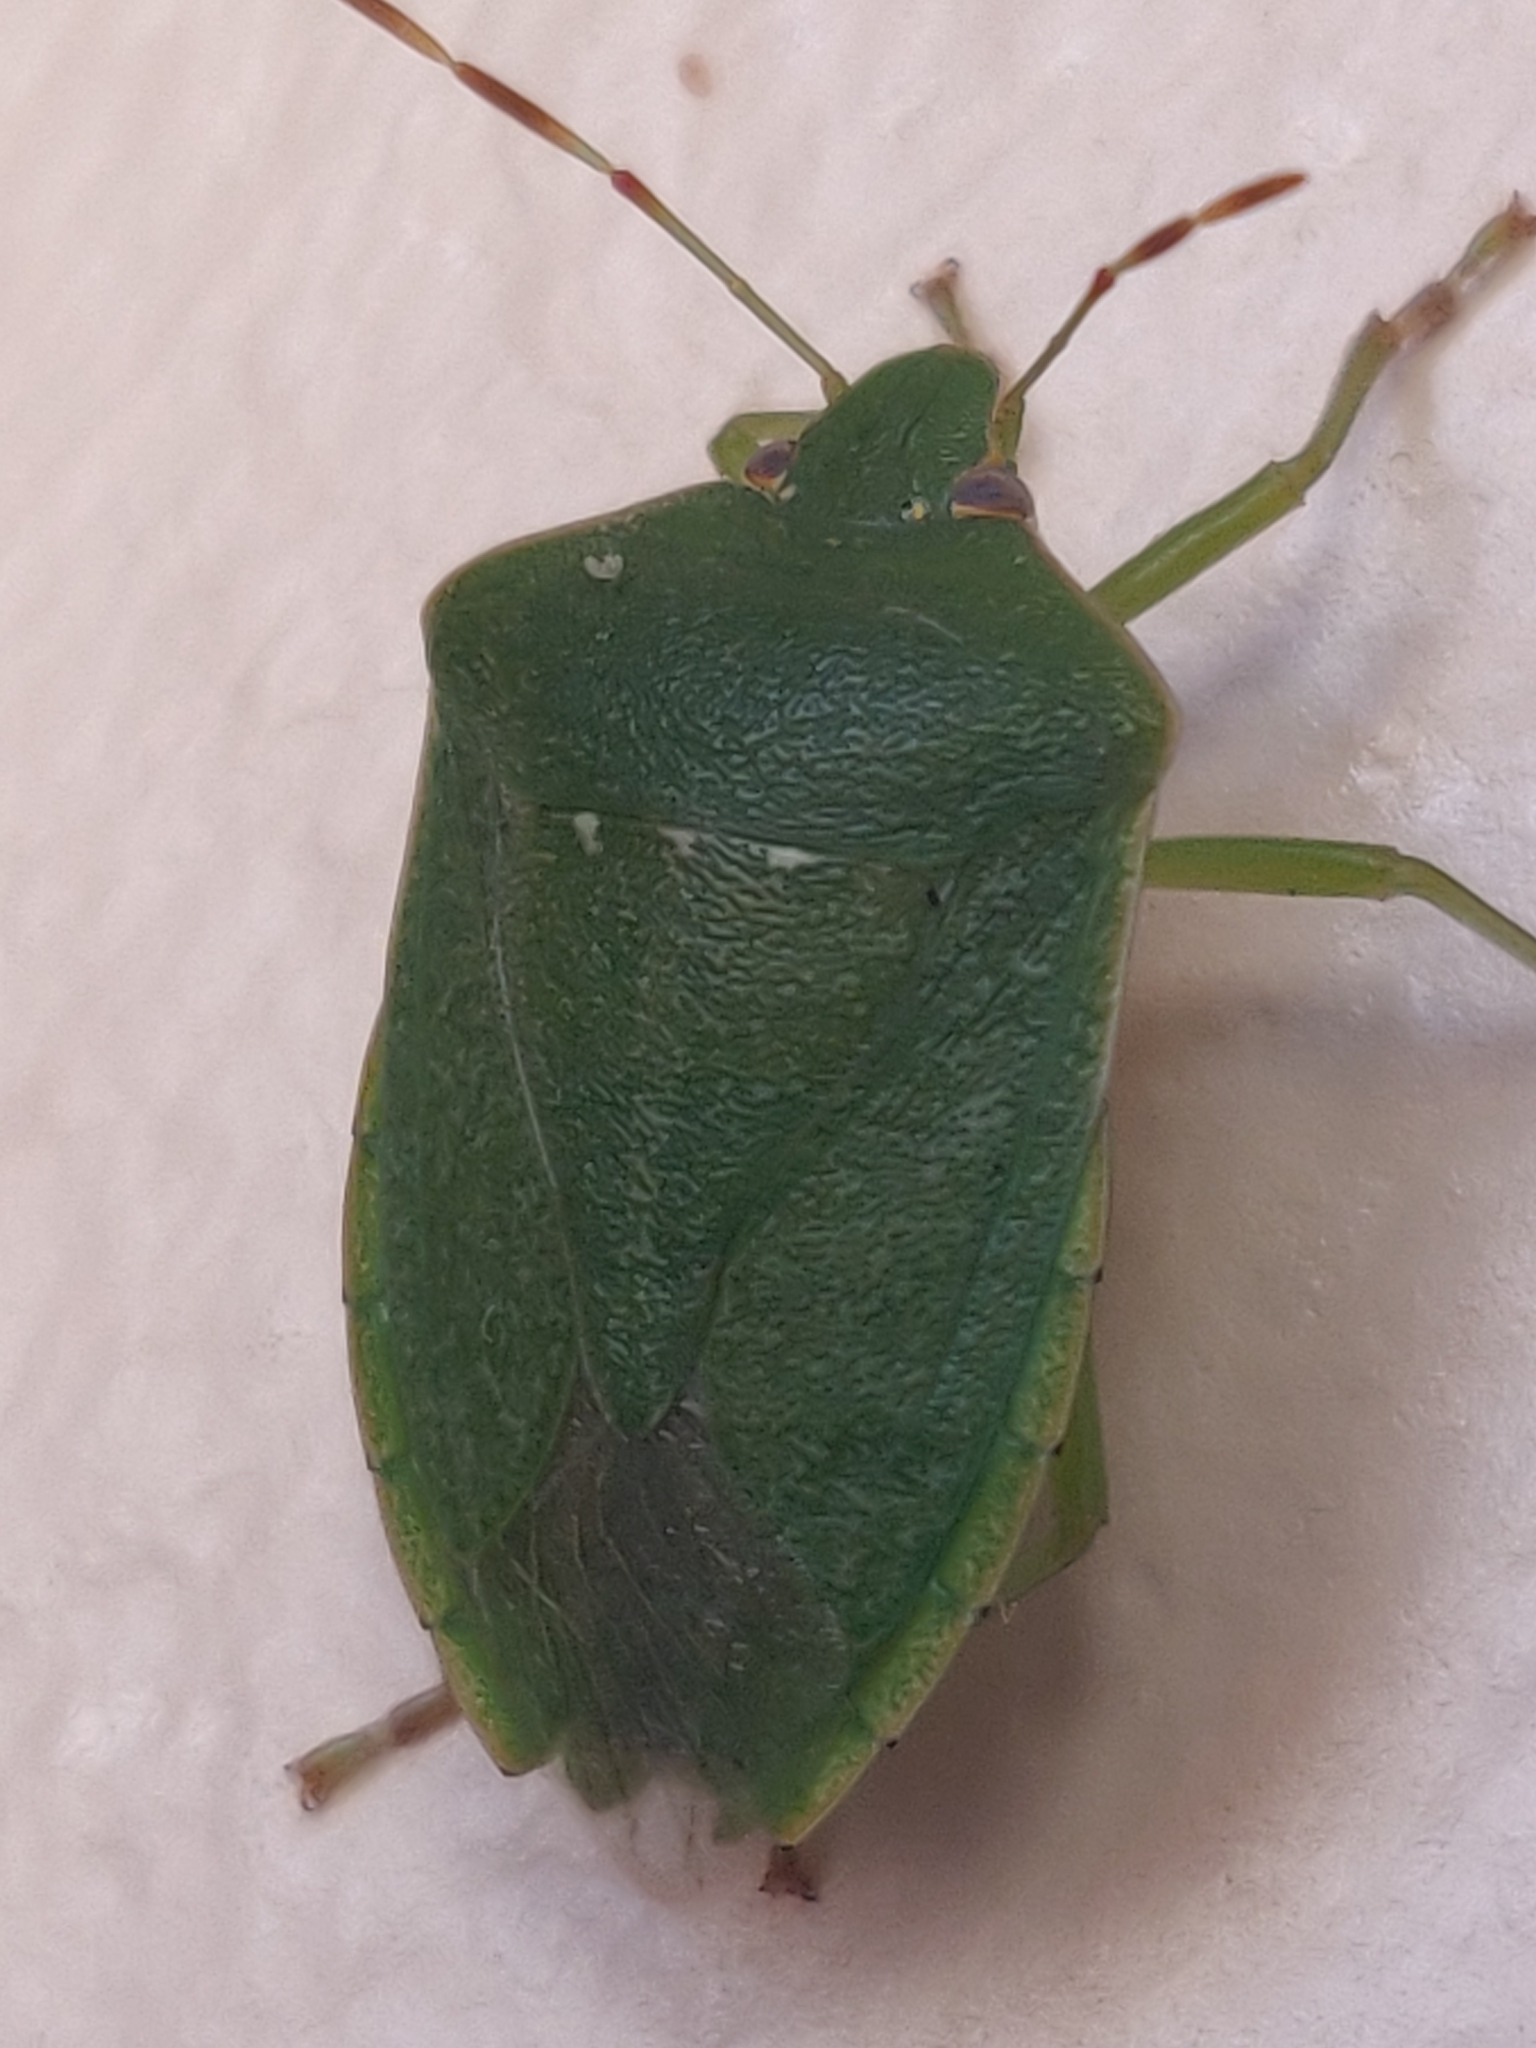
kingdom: Animalia
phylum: Arthropoda
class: Insecta
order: Hemiptera
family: Pentatomidae
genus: Nezara
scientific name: Nezara viridula
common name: Southern green stink bug
